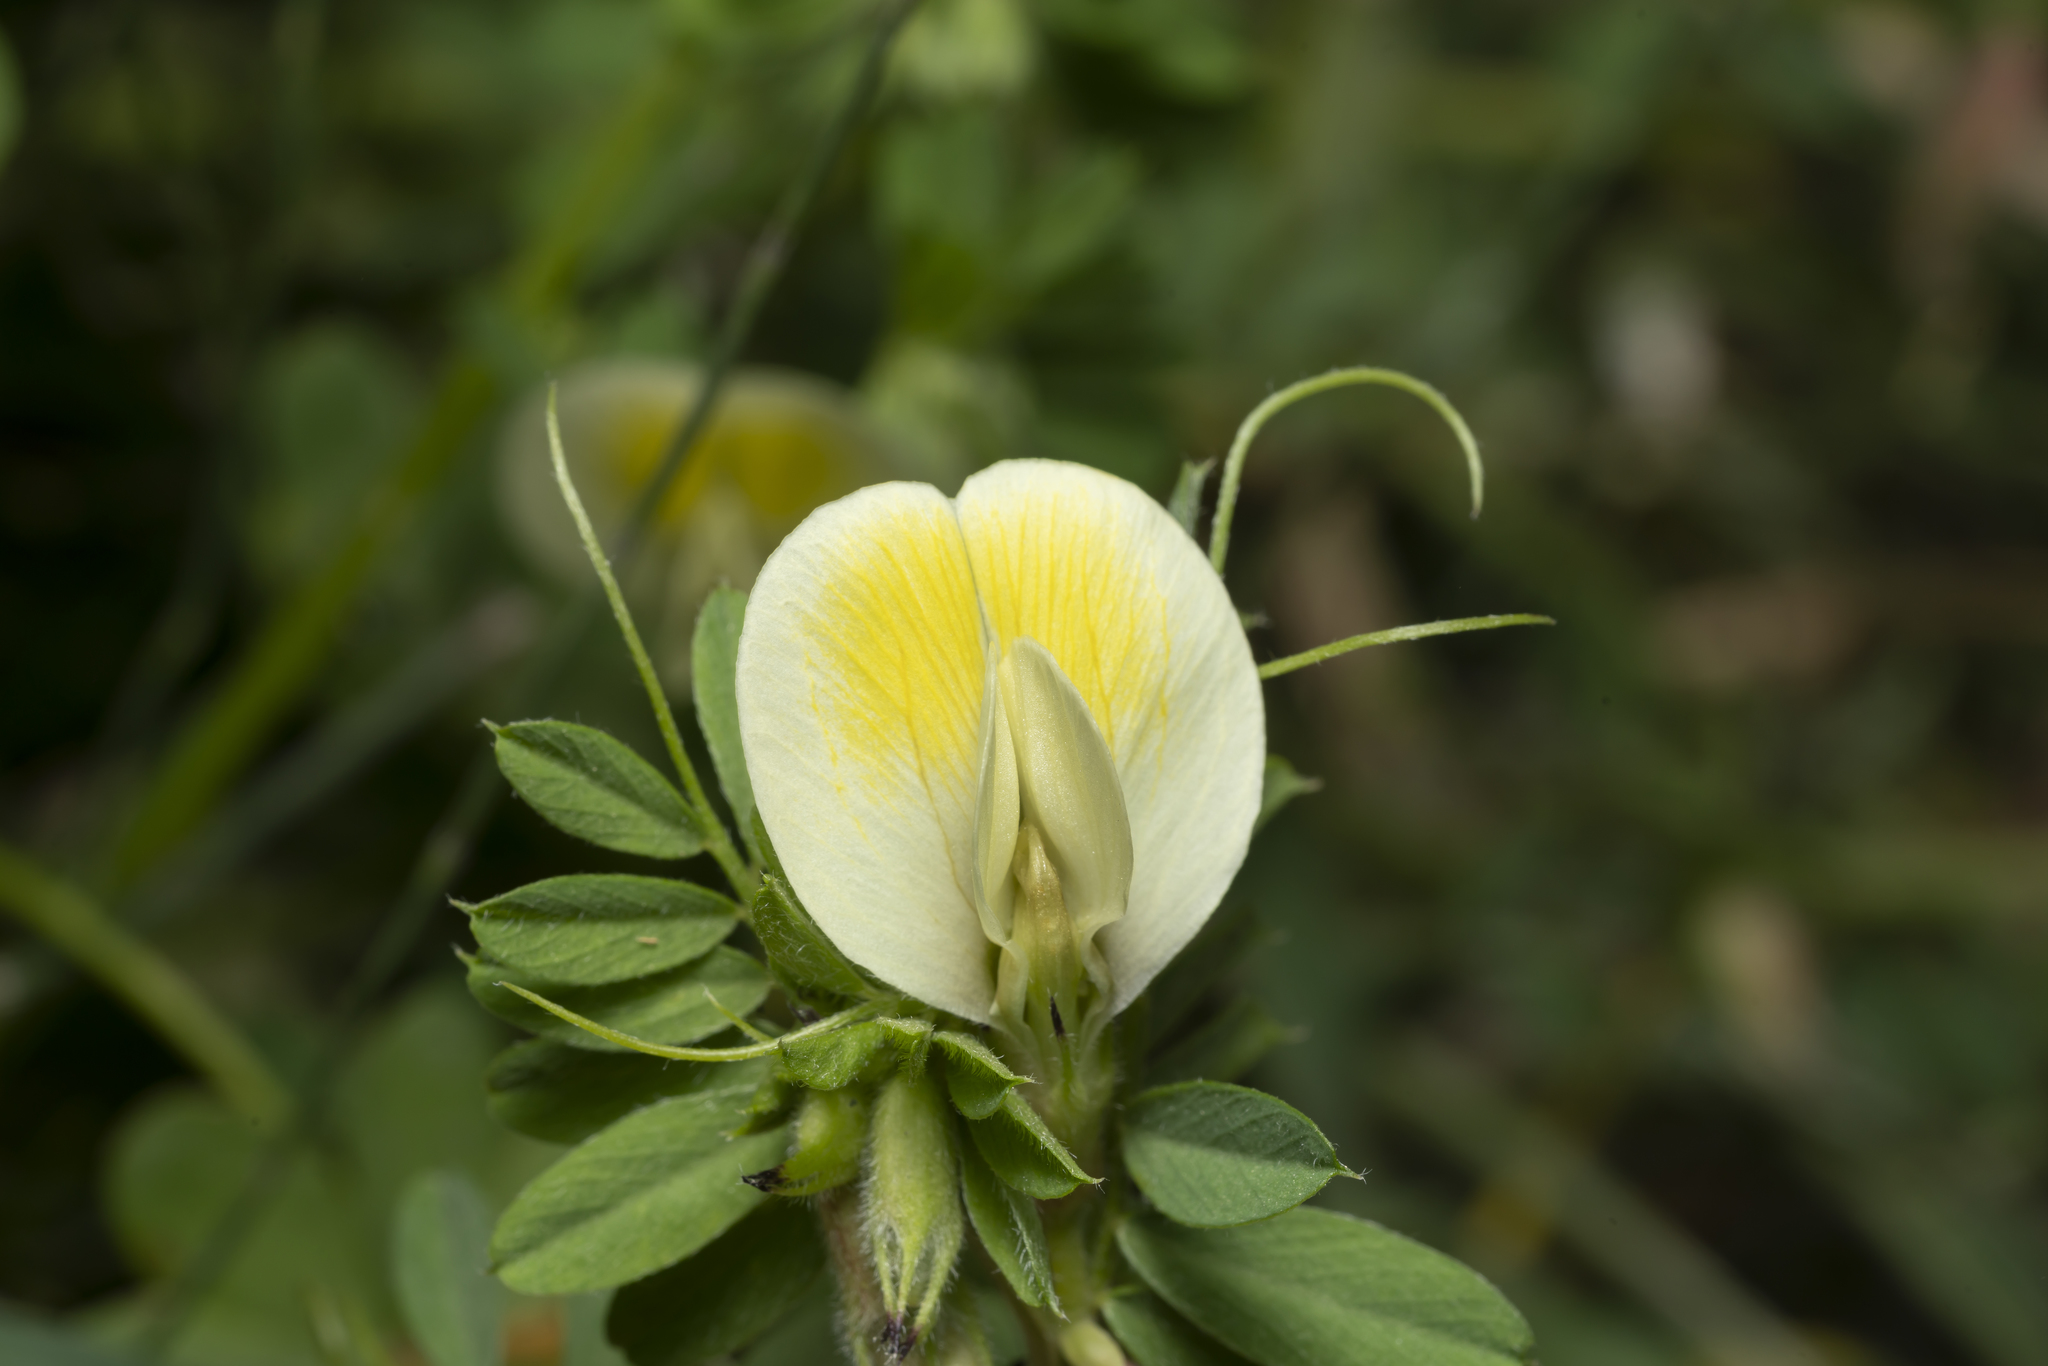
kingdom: Plantae
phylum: Tracheophyta
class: Magnoliopsida
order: Fabales
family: Fabaceae
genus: Vicia
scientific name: Vicia hybrida
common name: Hairy yellow vetch
